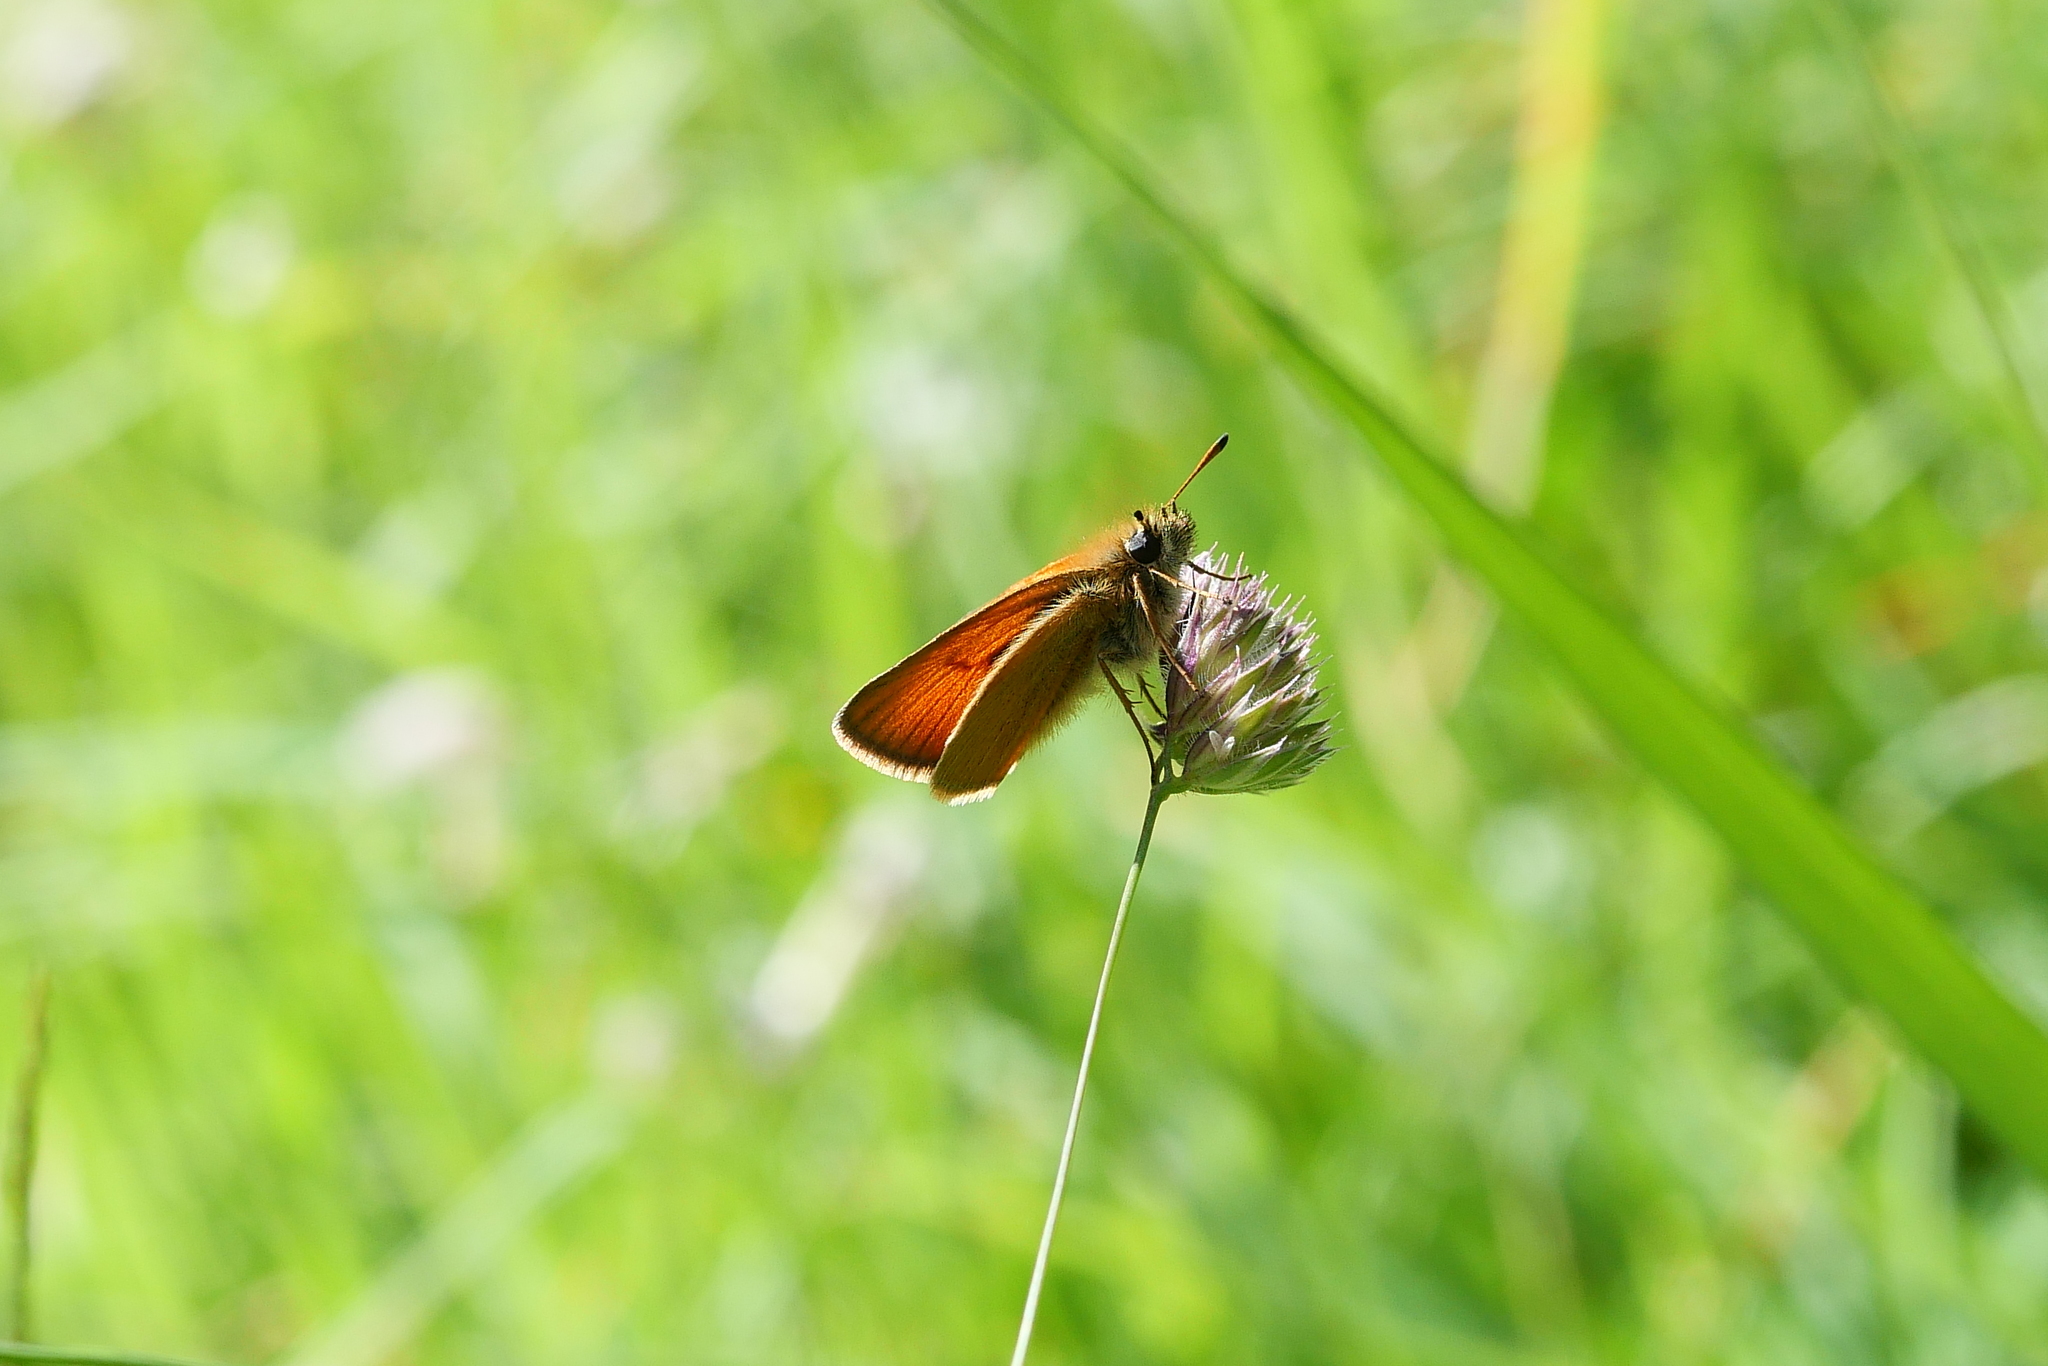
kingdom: Animalia
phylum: Arthropoda
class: Insecta
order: Lepidoptera
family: Hesperiidae
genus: Thymelicus
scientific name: Thymelicus lineola
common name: Essex skipper
